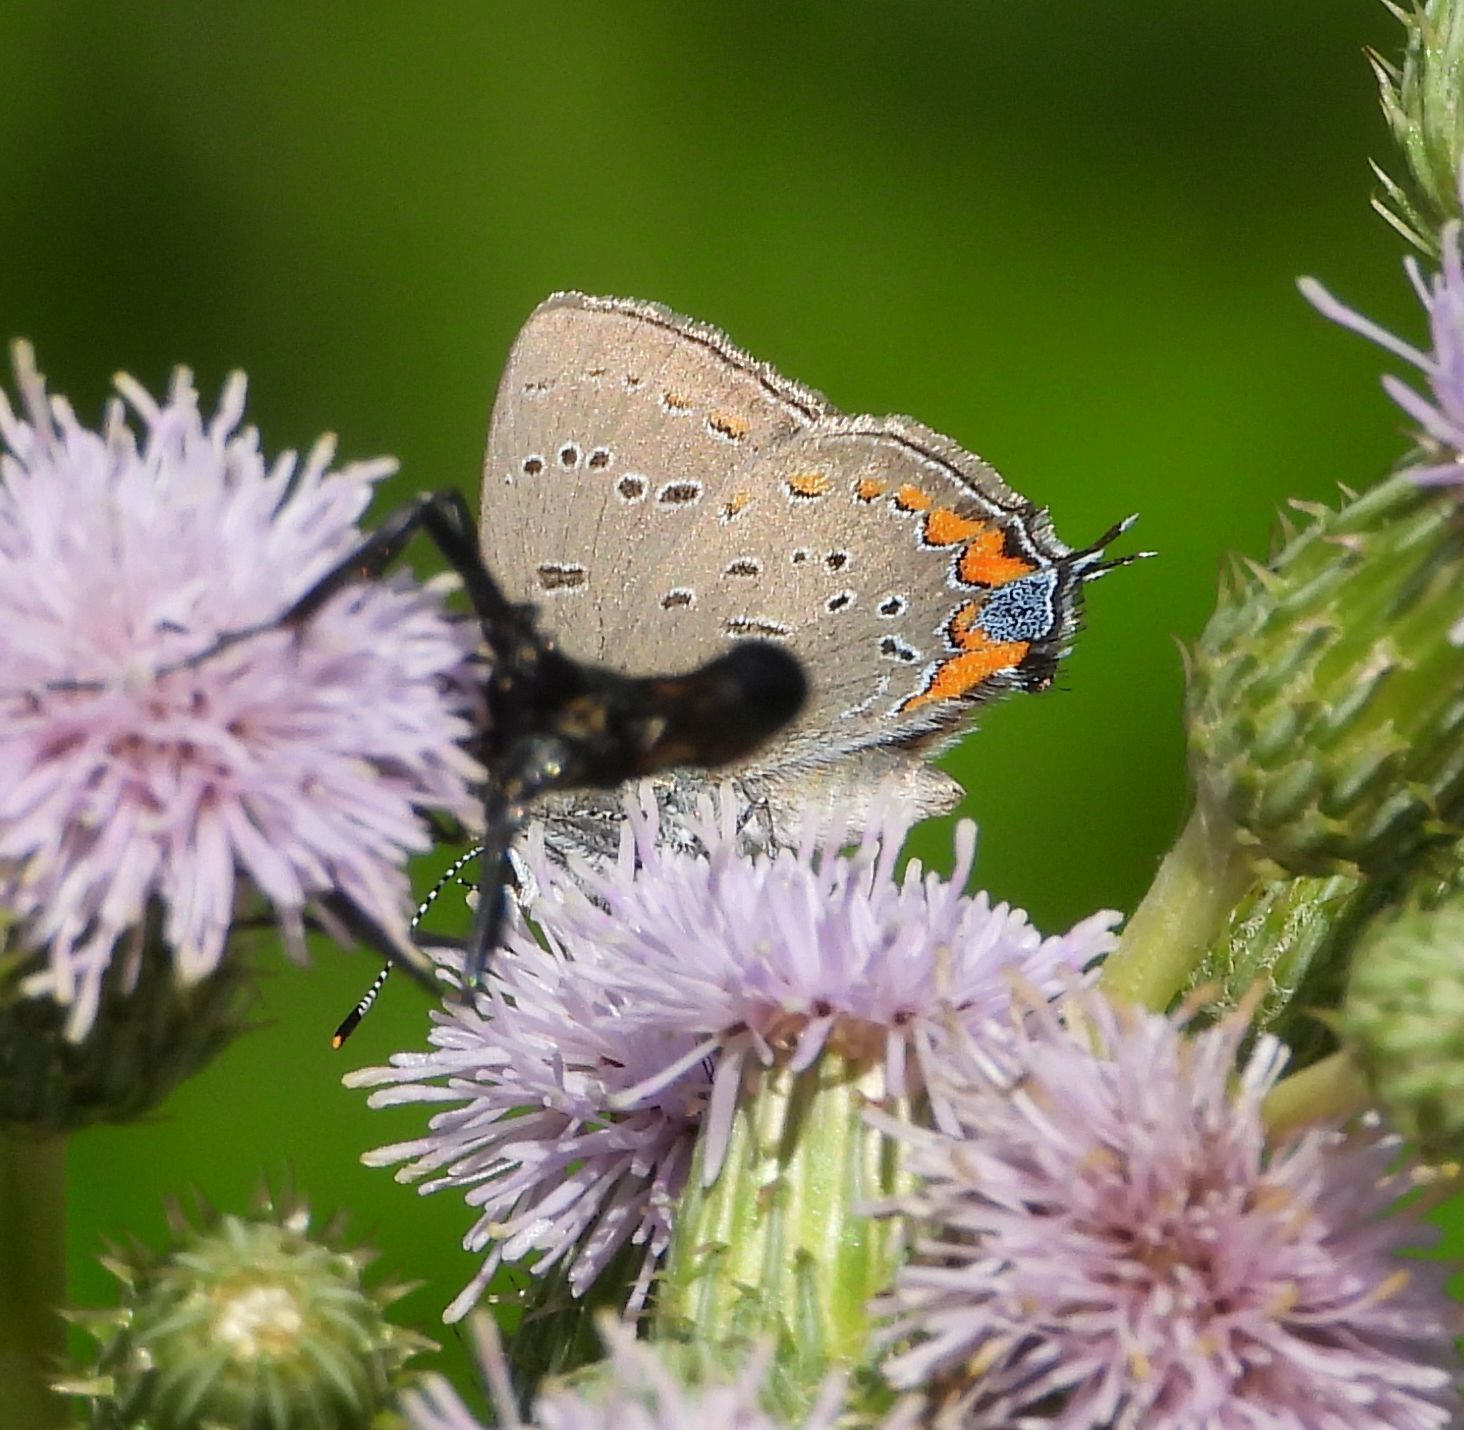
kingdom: Animalia
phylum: Arthropoda
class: Insecta
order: Lepidoptera
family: Lycaenidae
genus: Strymon
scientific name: Strymon acadica
